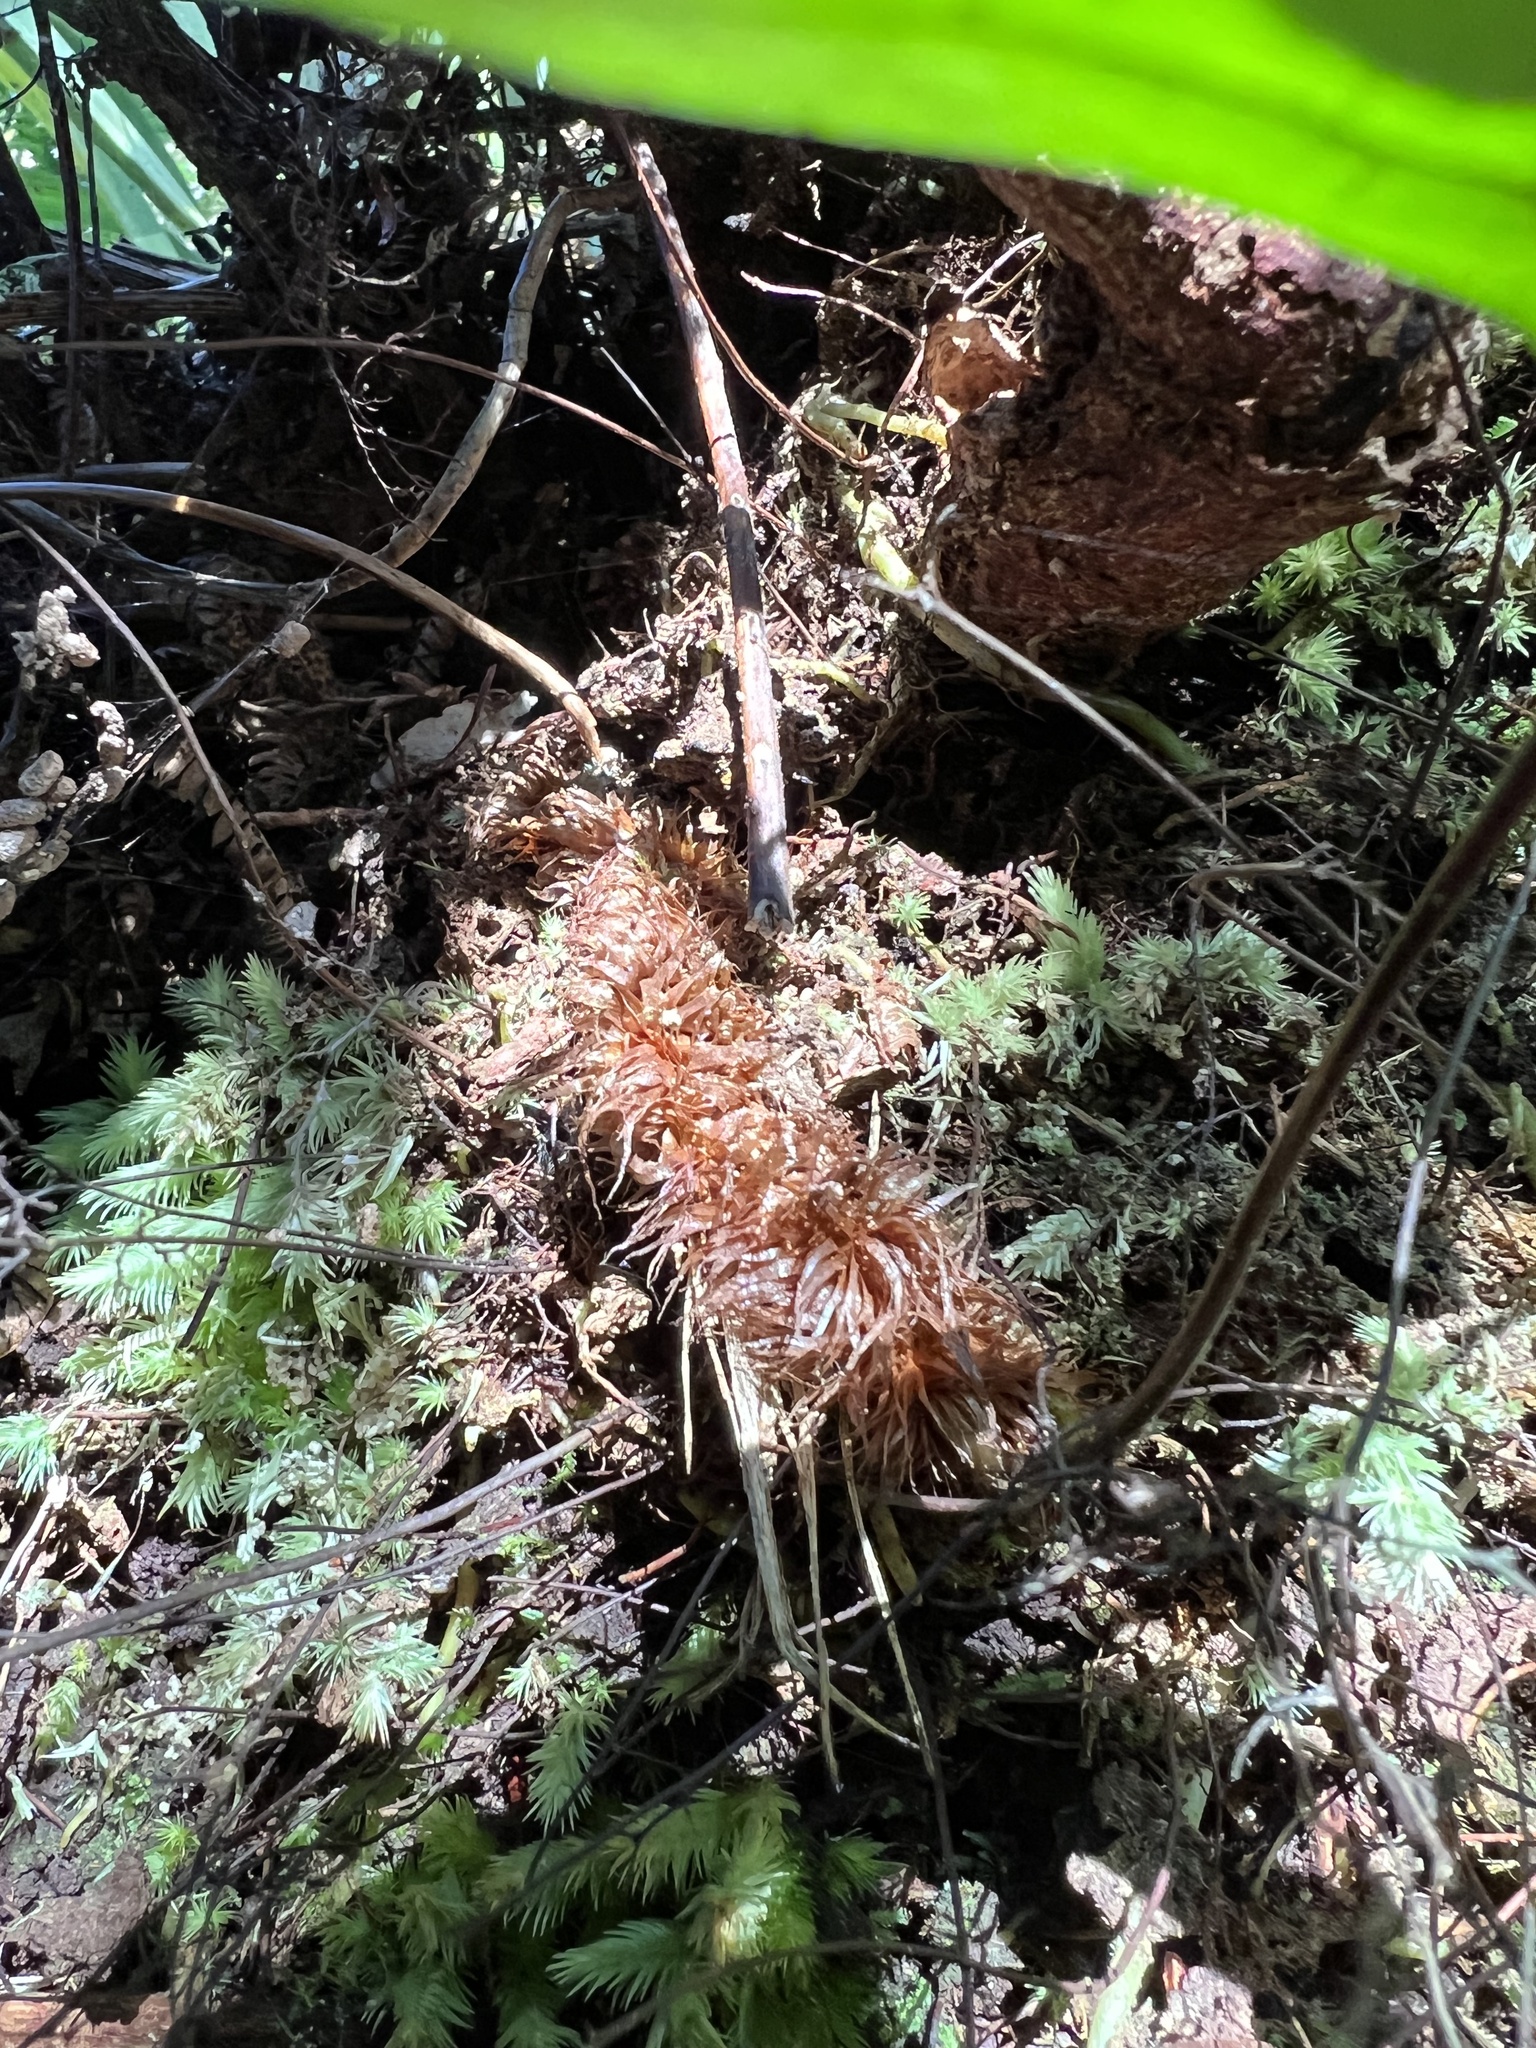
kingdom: Plantae
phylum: Tracheophyta
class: Polypodiopsida
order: Polypodiales
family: Polypodiaceae
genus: Lecanopteris
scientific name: Lecanopteris novae-zealandiae
